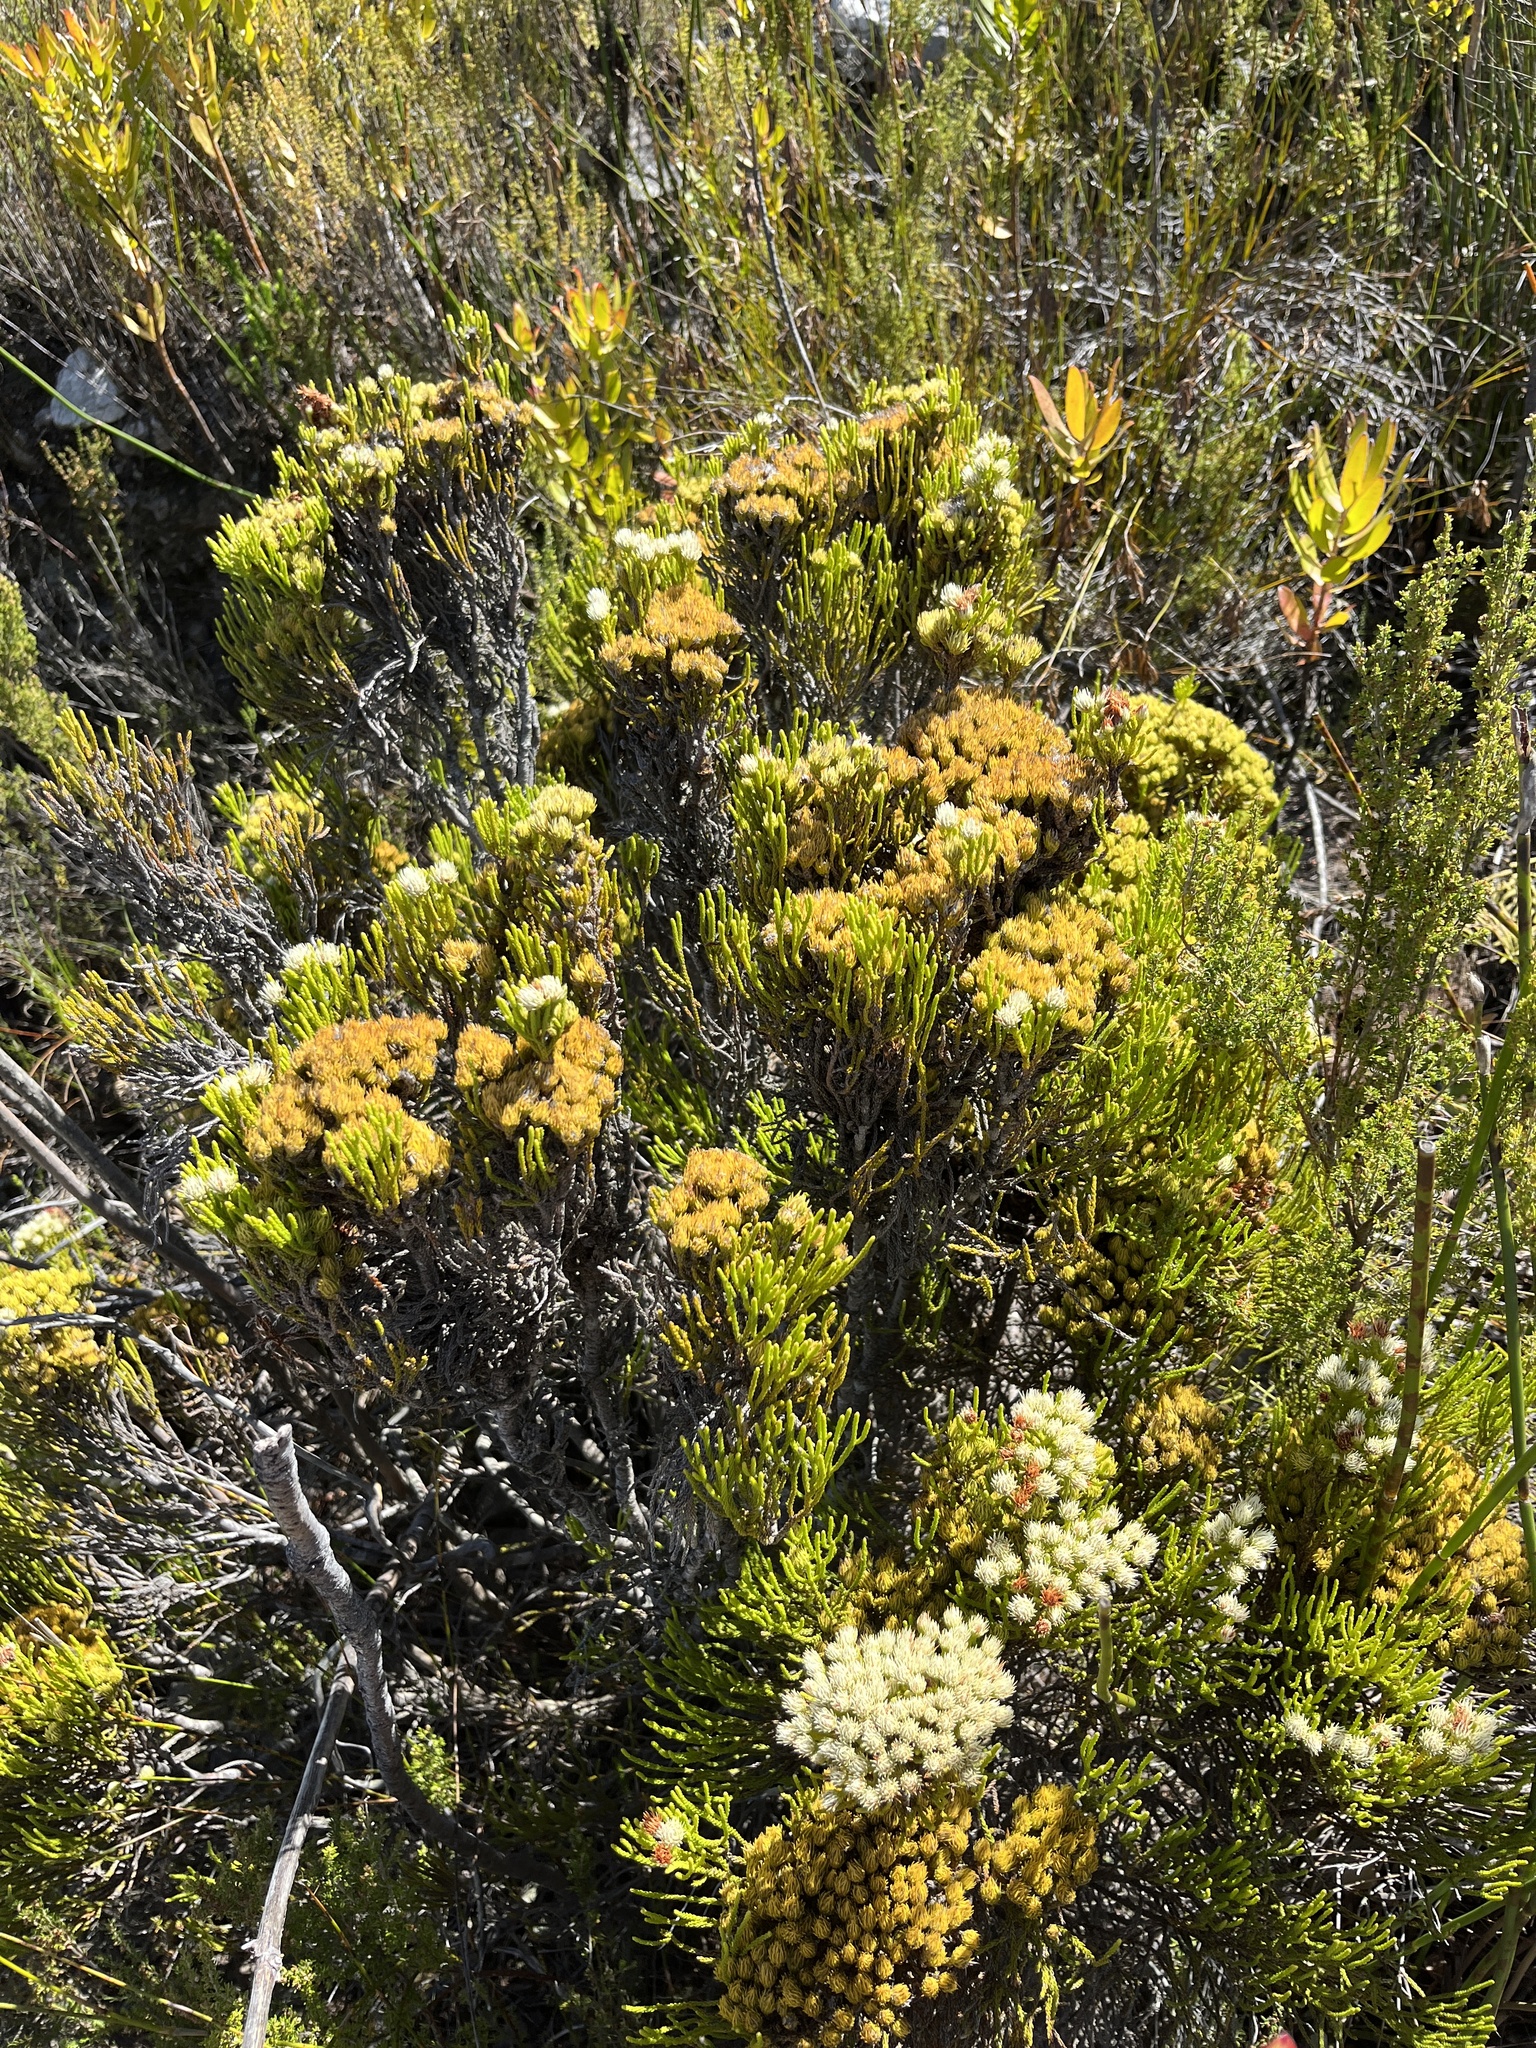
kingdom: Plantae
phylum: Tracheophyta
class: Magnoliopsida
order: Bruniales
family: Bruniaceae
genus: Brunia
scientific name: Brunia paleacea
